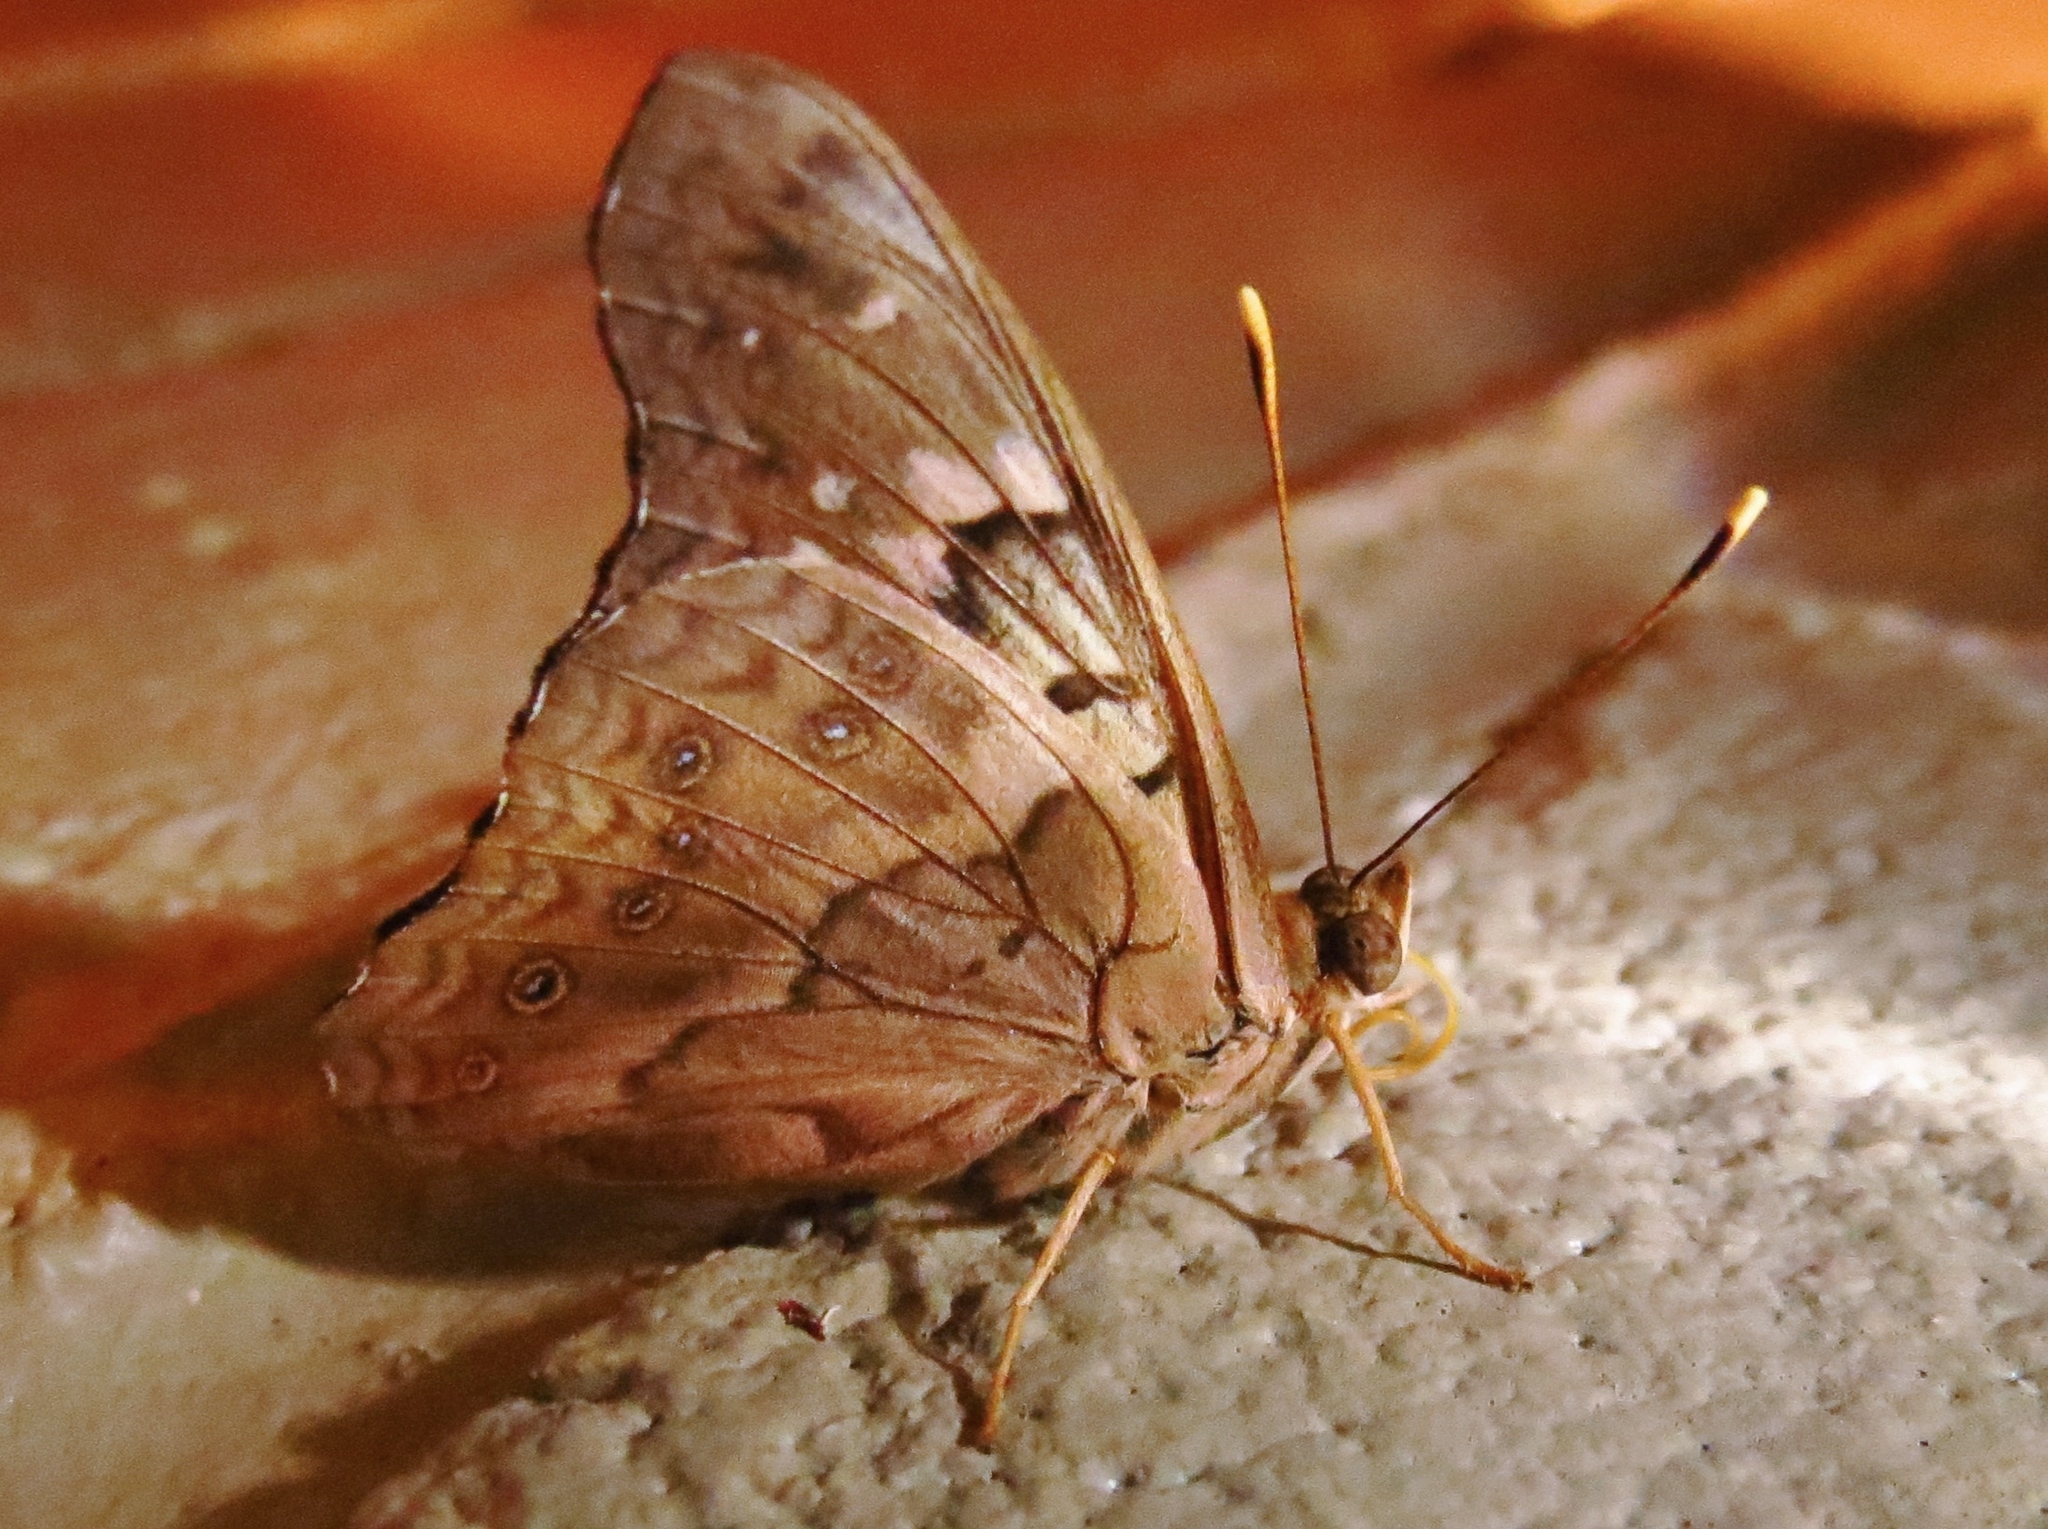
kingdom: Animalia
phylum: Arthropoda
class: Insecta
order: Lepidoptera
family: Nymphalidae
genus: Asterocampa
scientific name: Asterocampa clyton
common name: Tawny emperor
